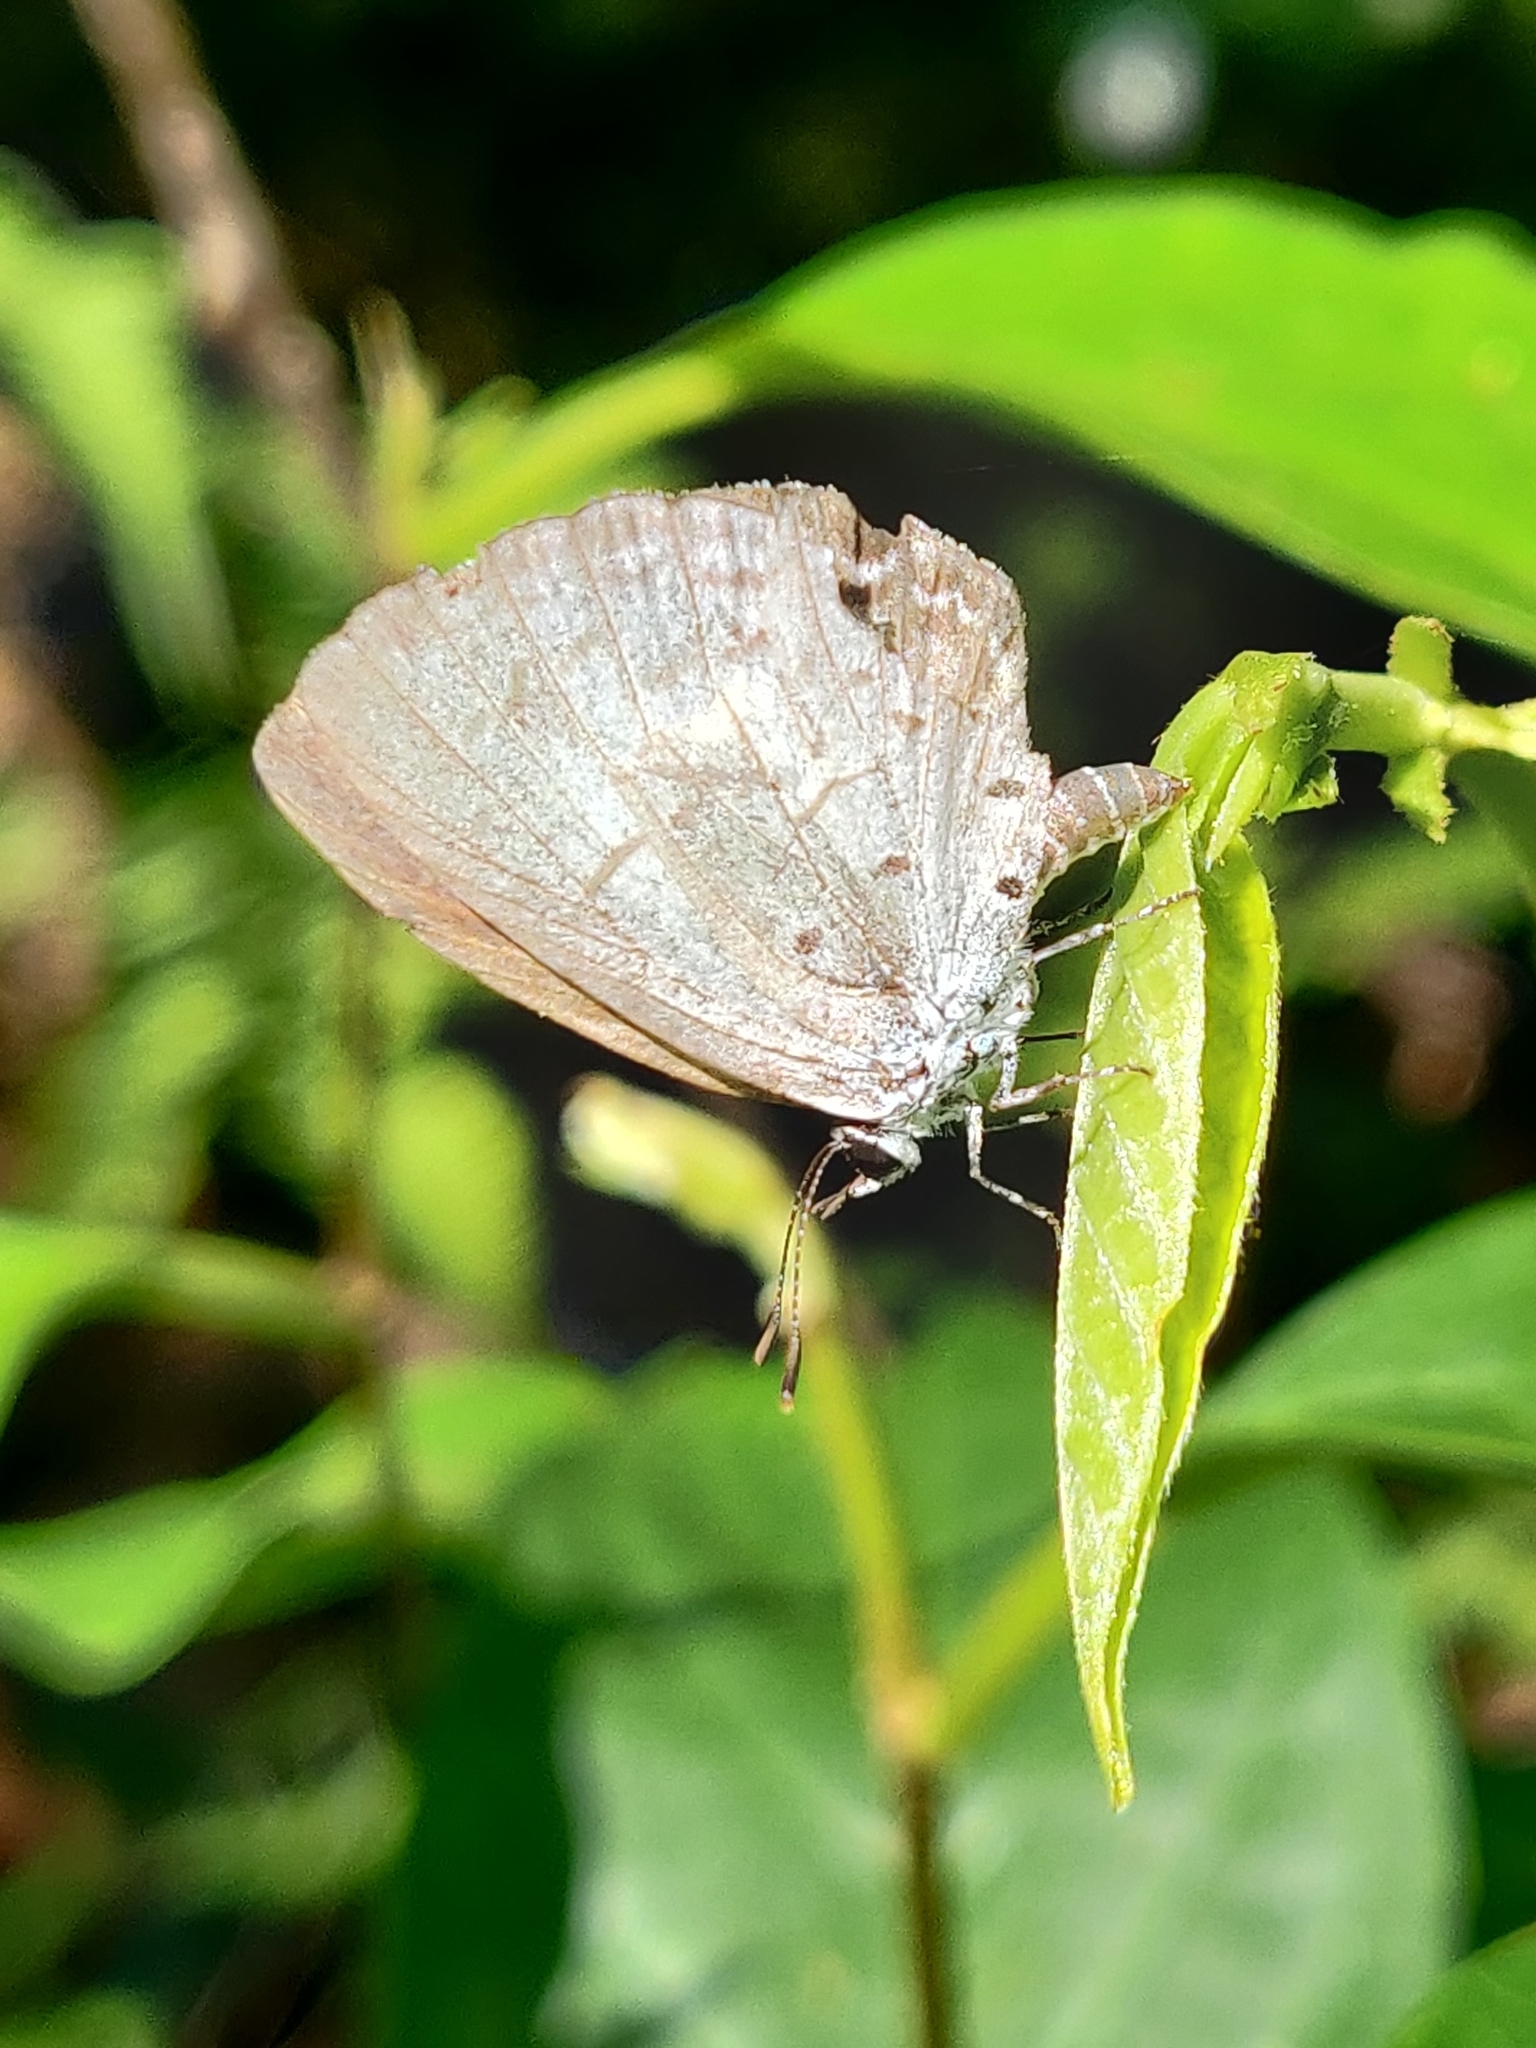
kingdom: Animalia
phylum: Arthropoda
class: Insecta
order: Lepidoptera
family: Lycaenidae
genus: Acytolepis
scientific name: Acytolepis puspa
